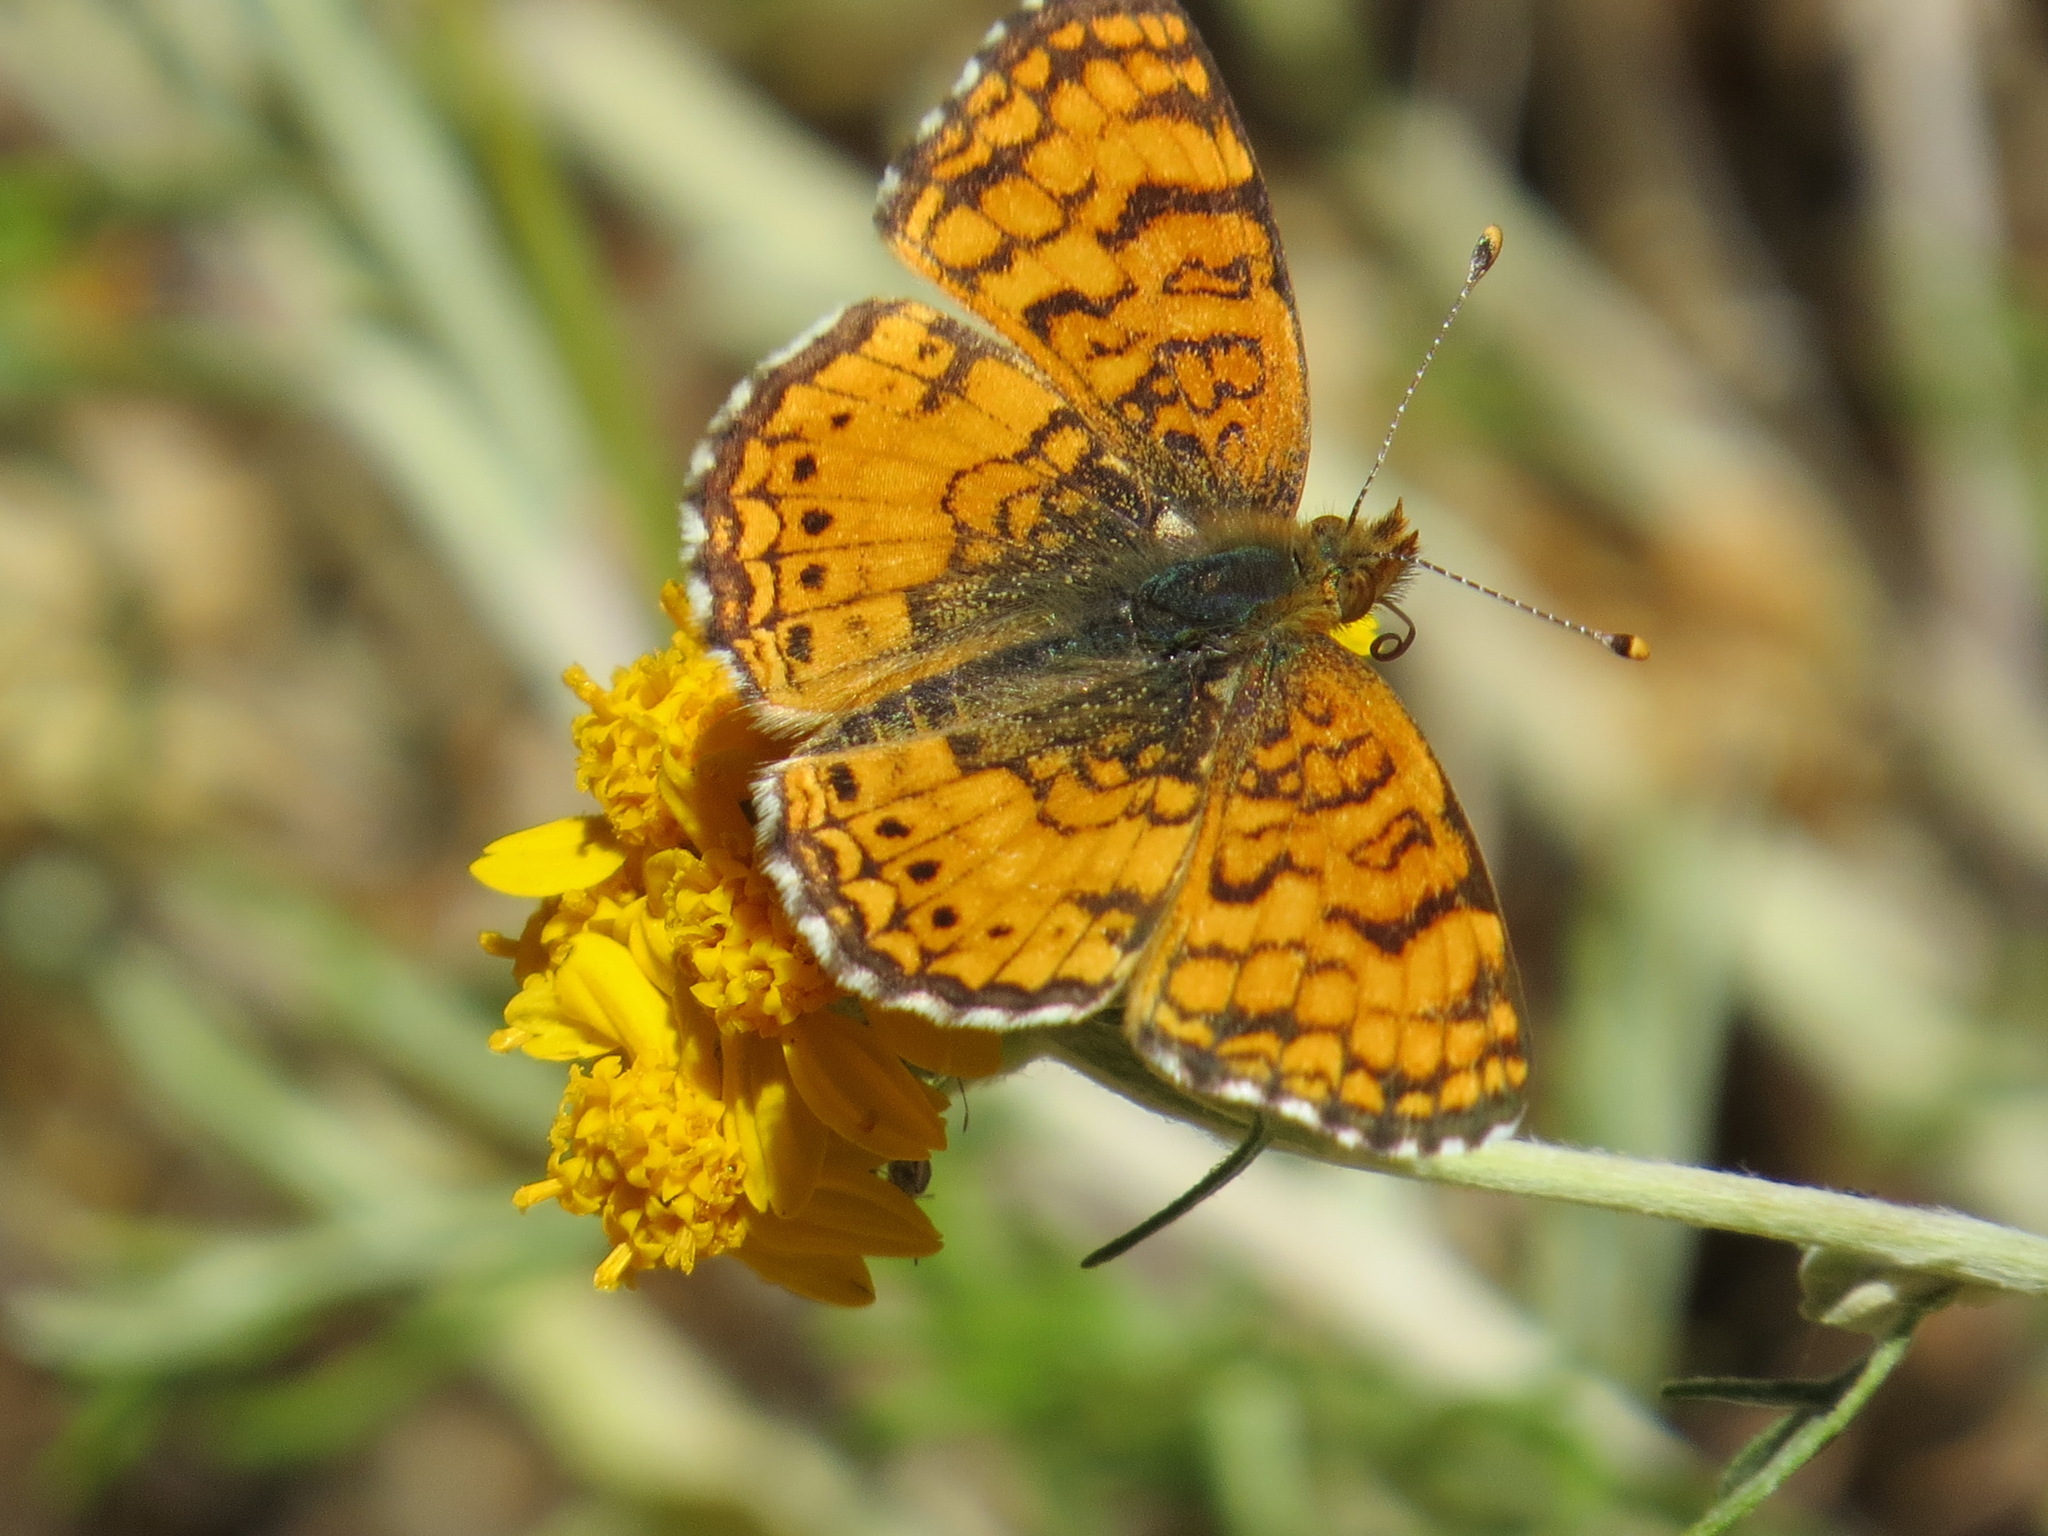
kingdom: Animalia
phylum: Arthropoda
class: Insecta
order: Lepidoptera
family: Nymphalidae
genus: Eresia
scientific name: Eresia aveyrona
